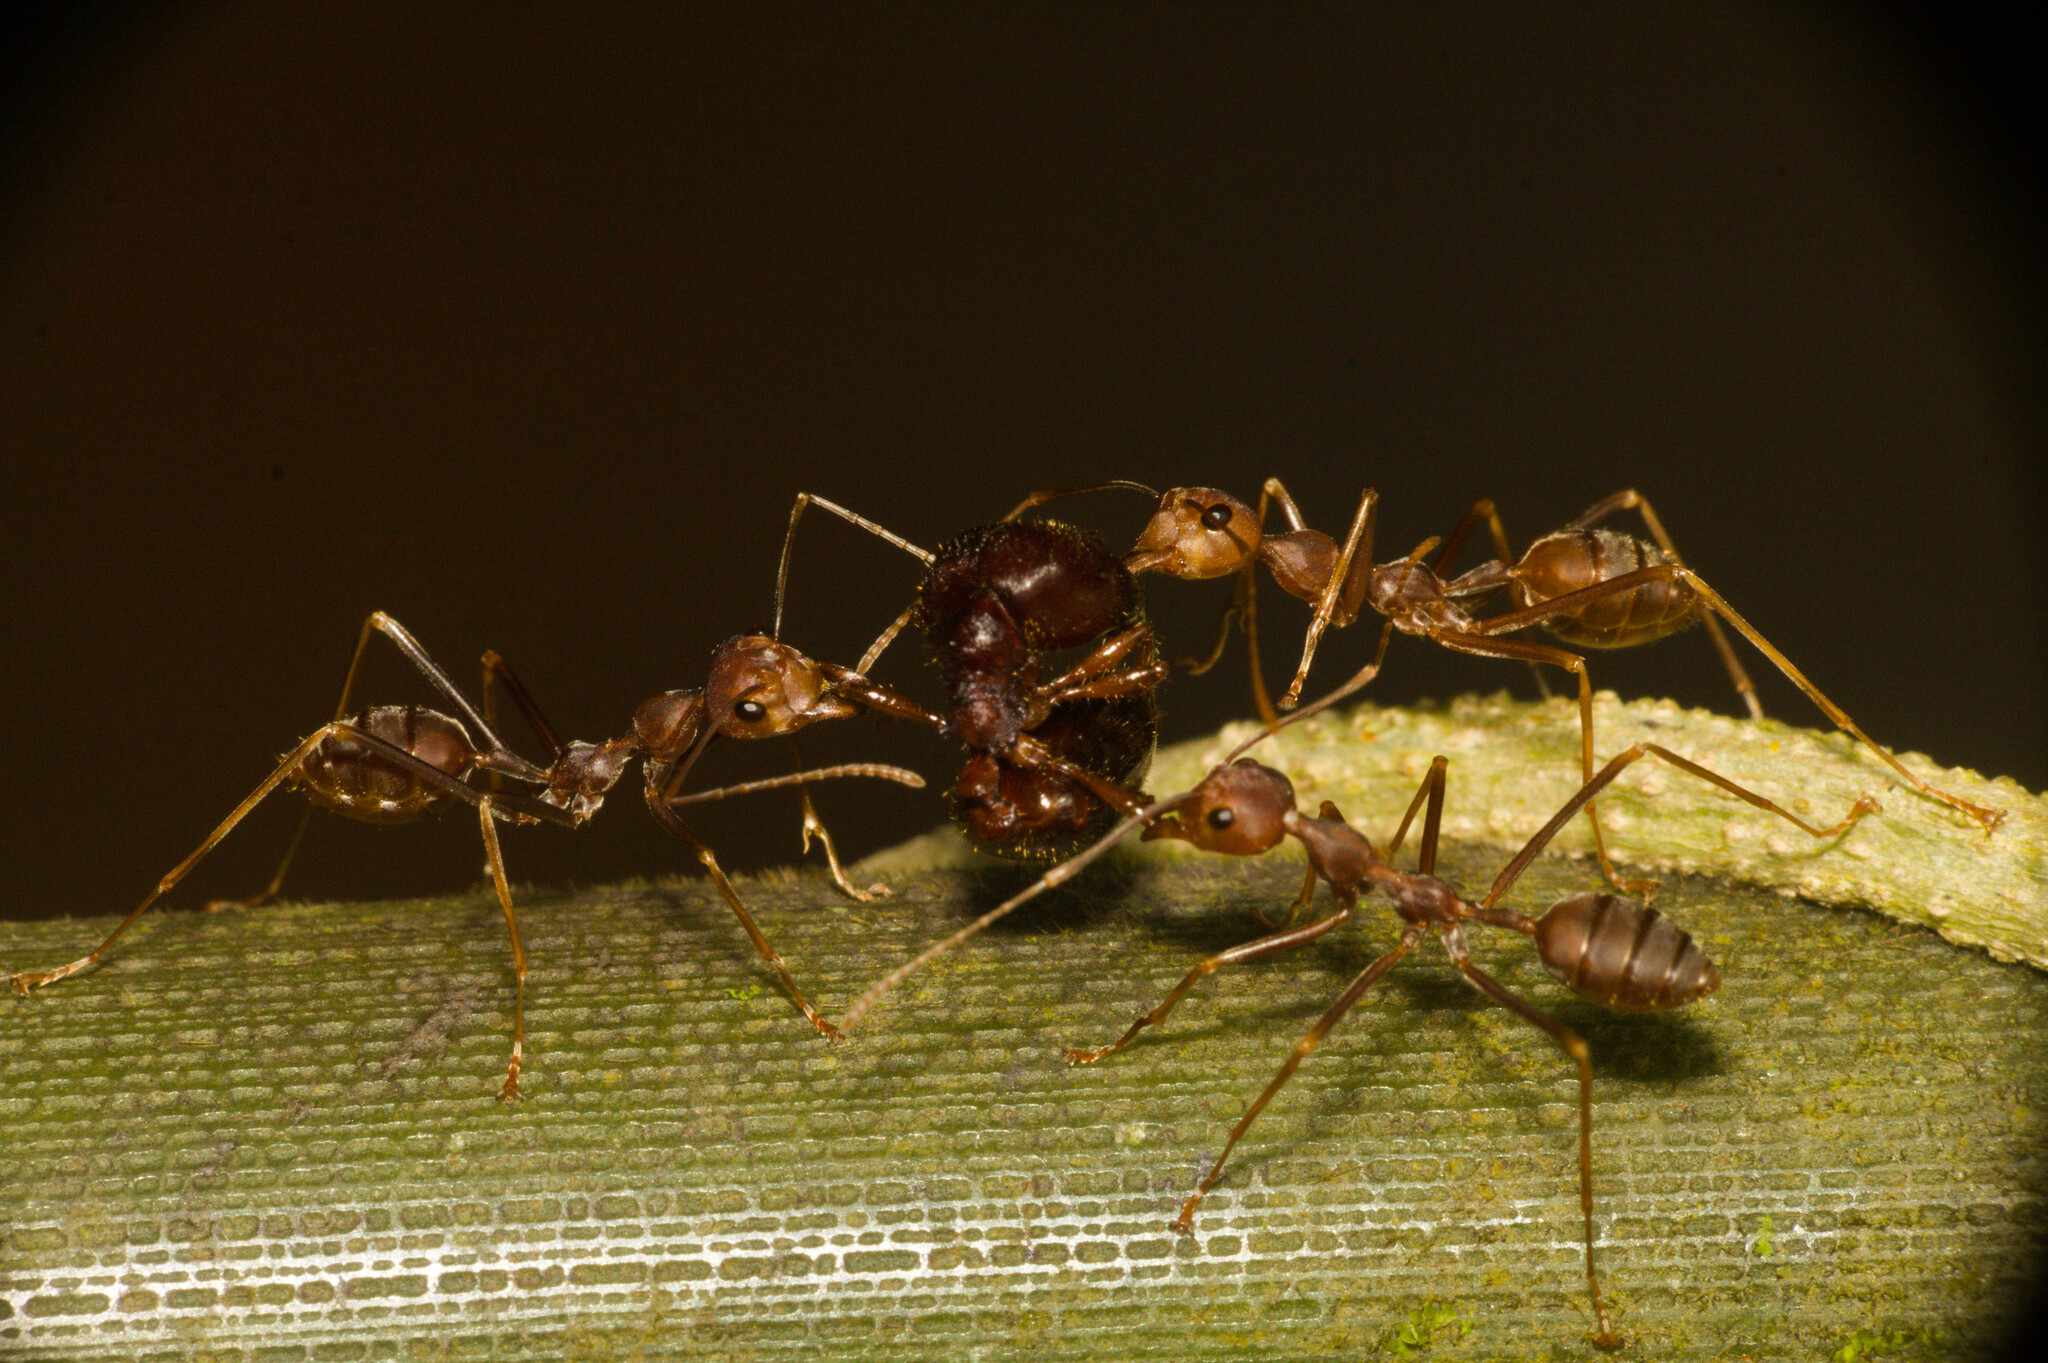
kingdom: Animalia
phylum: Arthropoda
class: Insecta
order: Hymenoptera
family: Formicidae
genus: Oecophylla
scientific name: Oecophylla smaragdina
